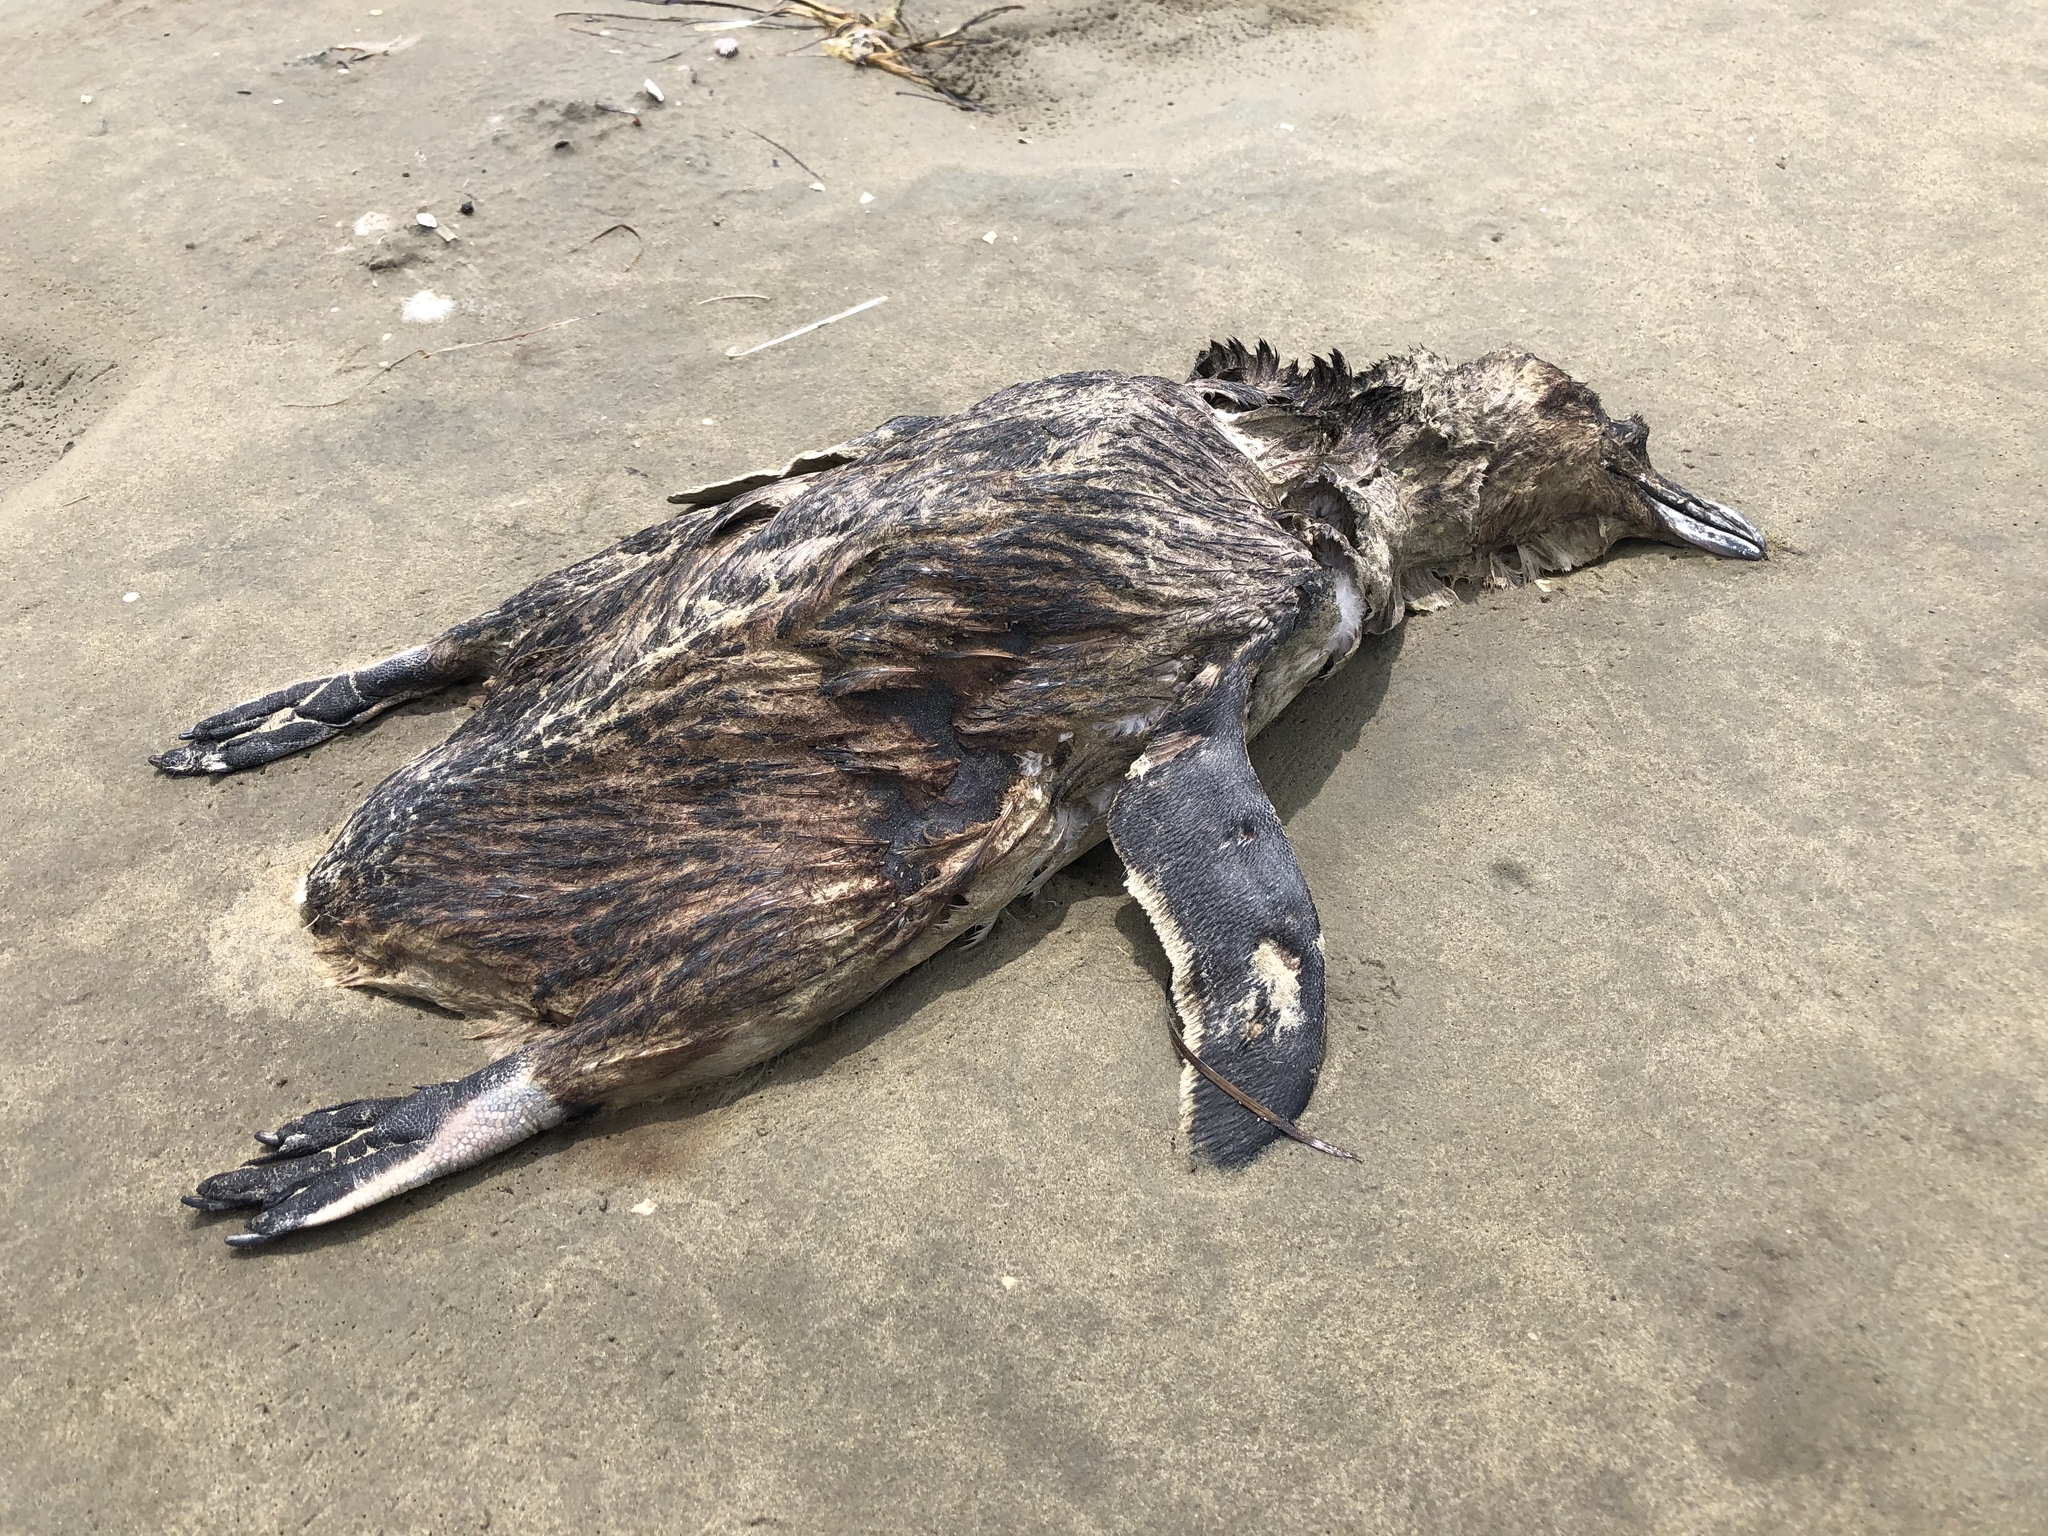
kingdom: Animalia
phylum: Chordata
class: Aves
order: Sphenisciformes
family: Spheniscidae
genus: Eudyptula
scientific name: Eudyptula minor
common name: Little penguin
